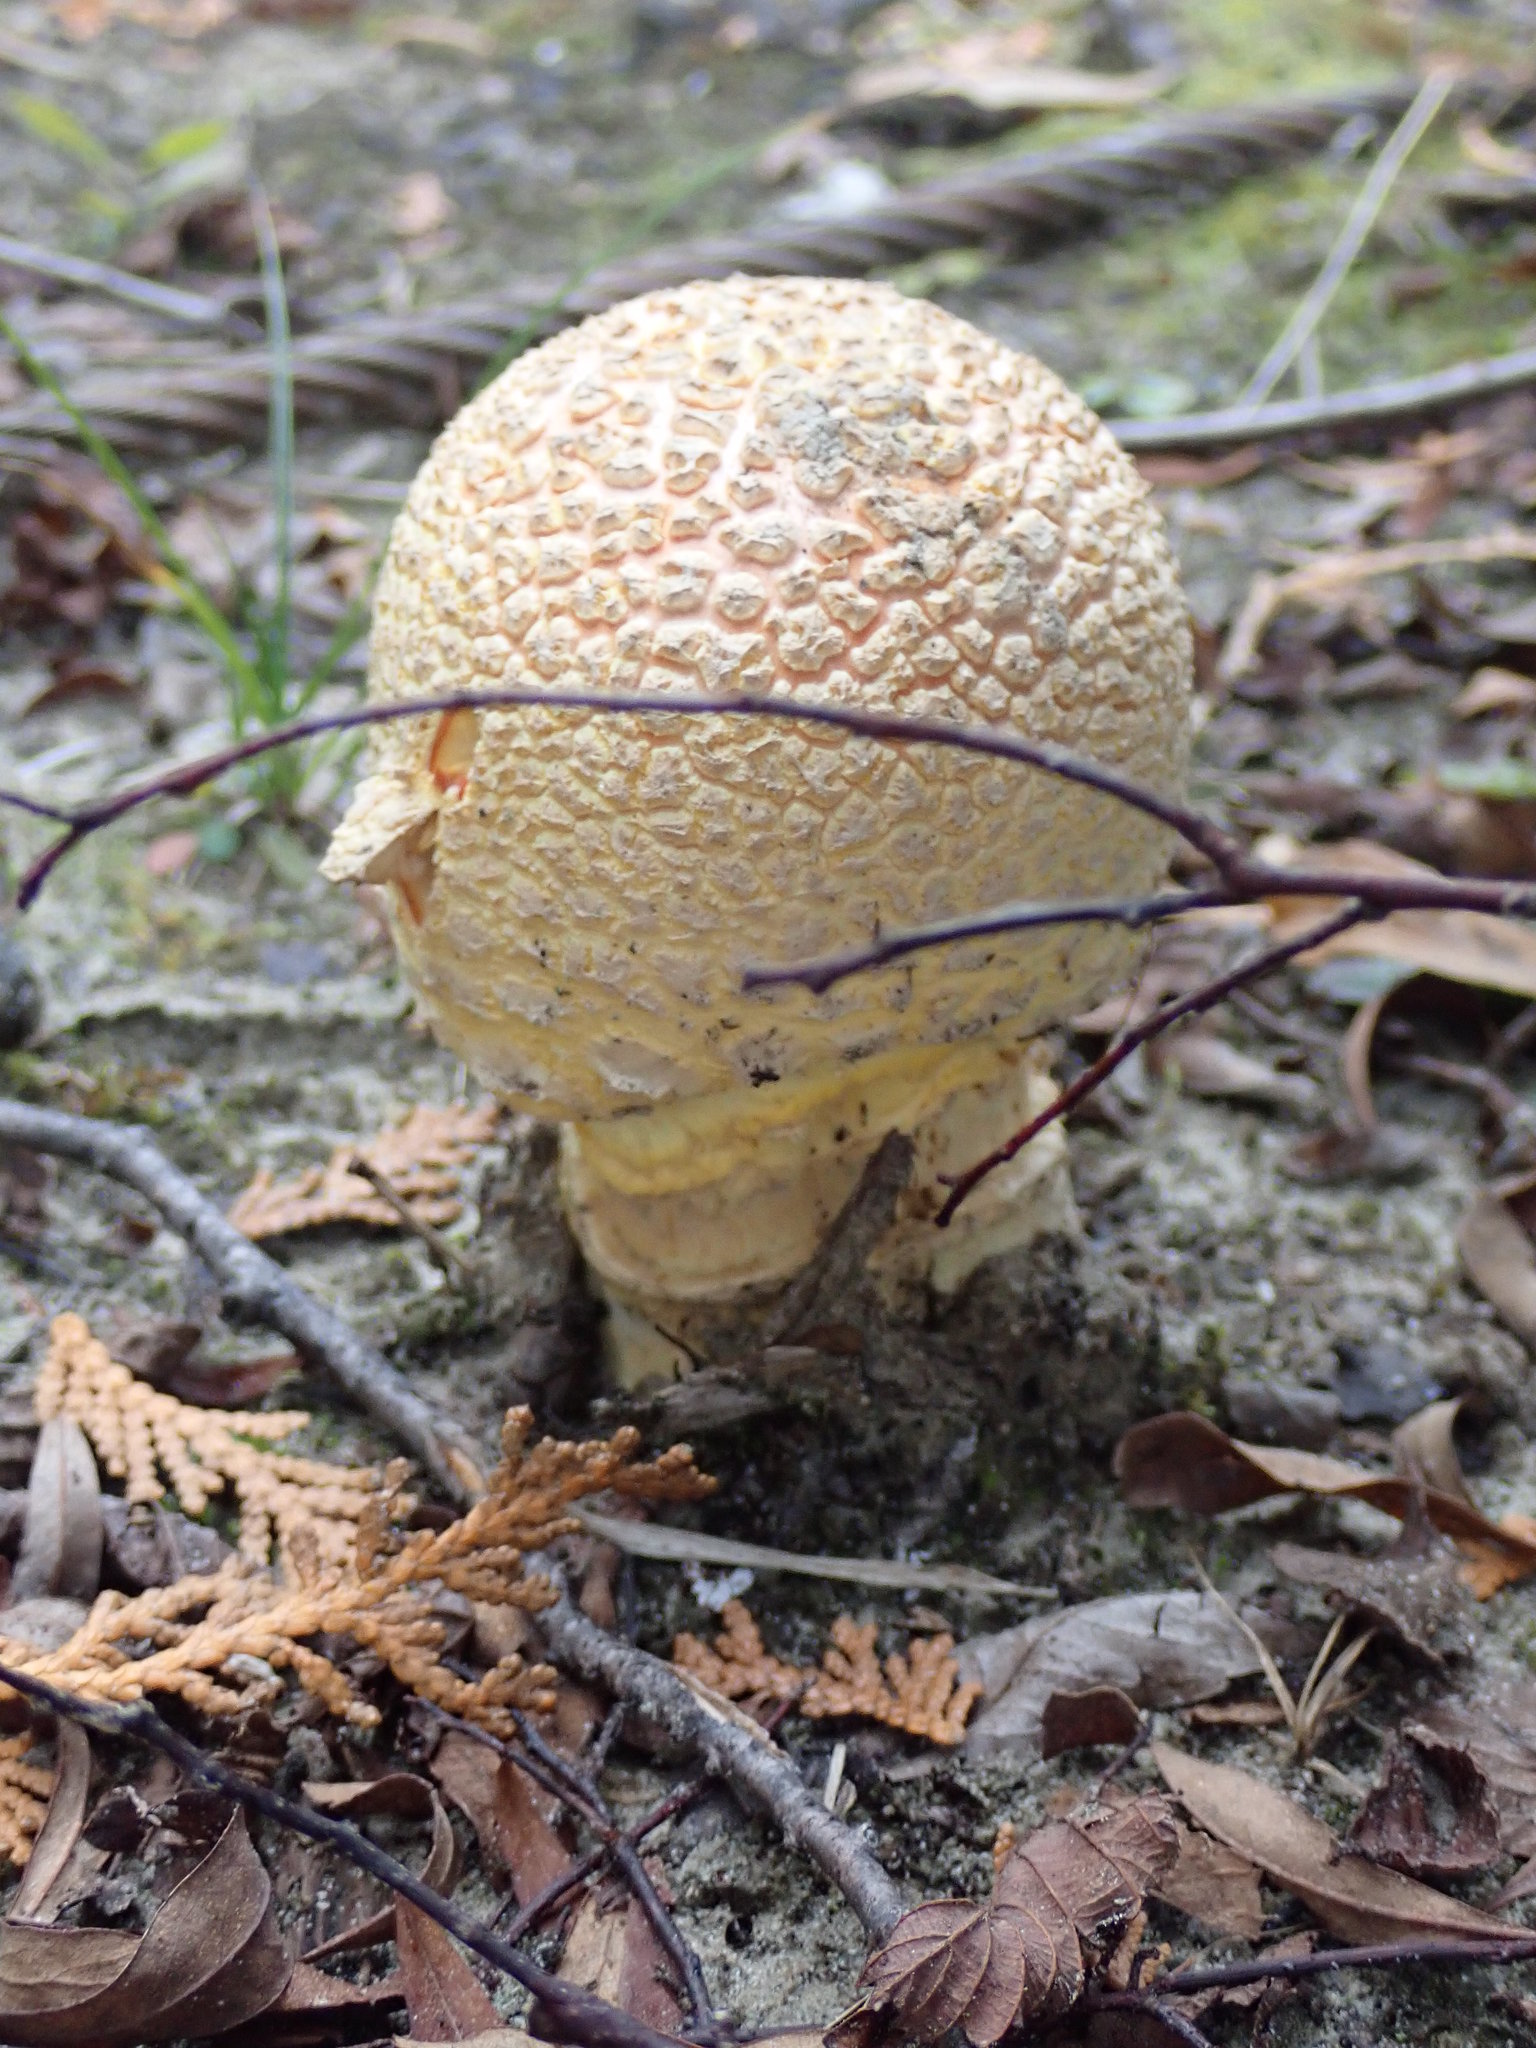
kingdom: Fungi
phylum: Basidiomycota
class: Agaricomycetes
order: Agaricales
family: Amanitaceae
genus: Amanita
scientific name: Amanita muscaria
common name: Fly agaric
